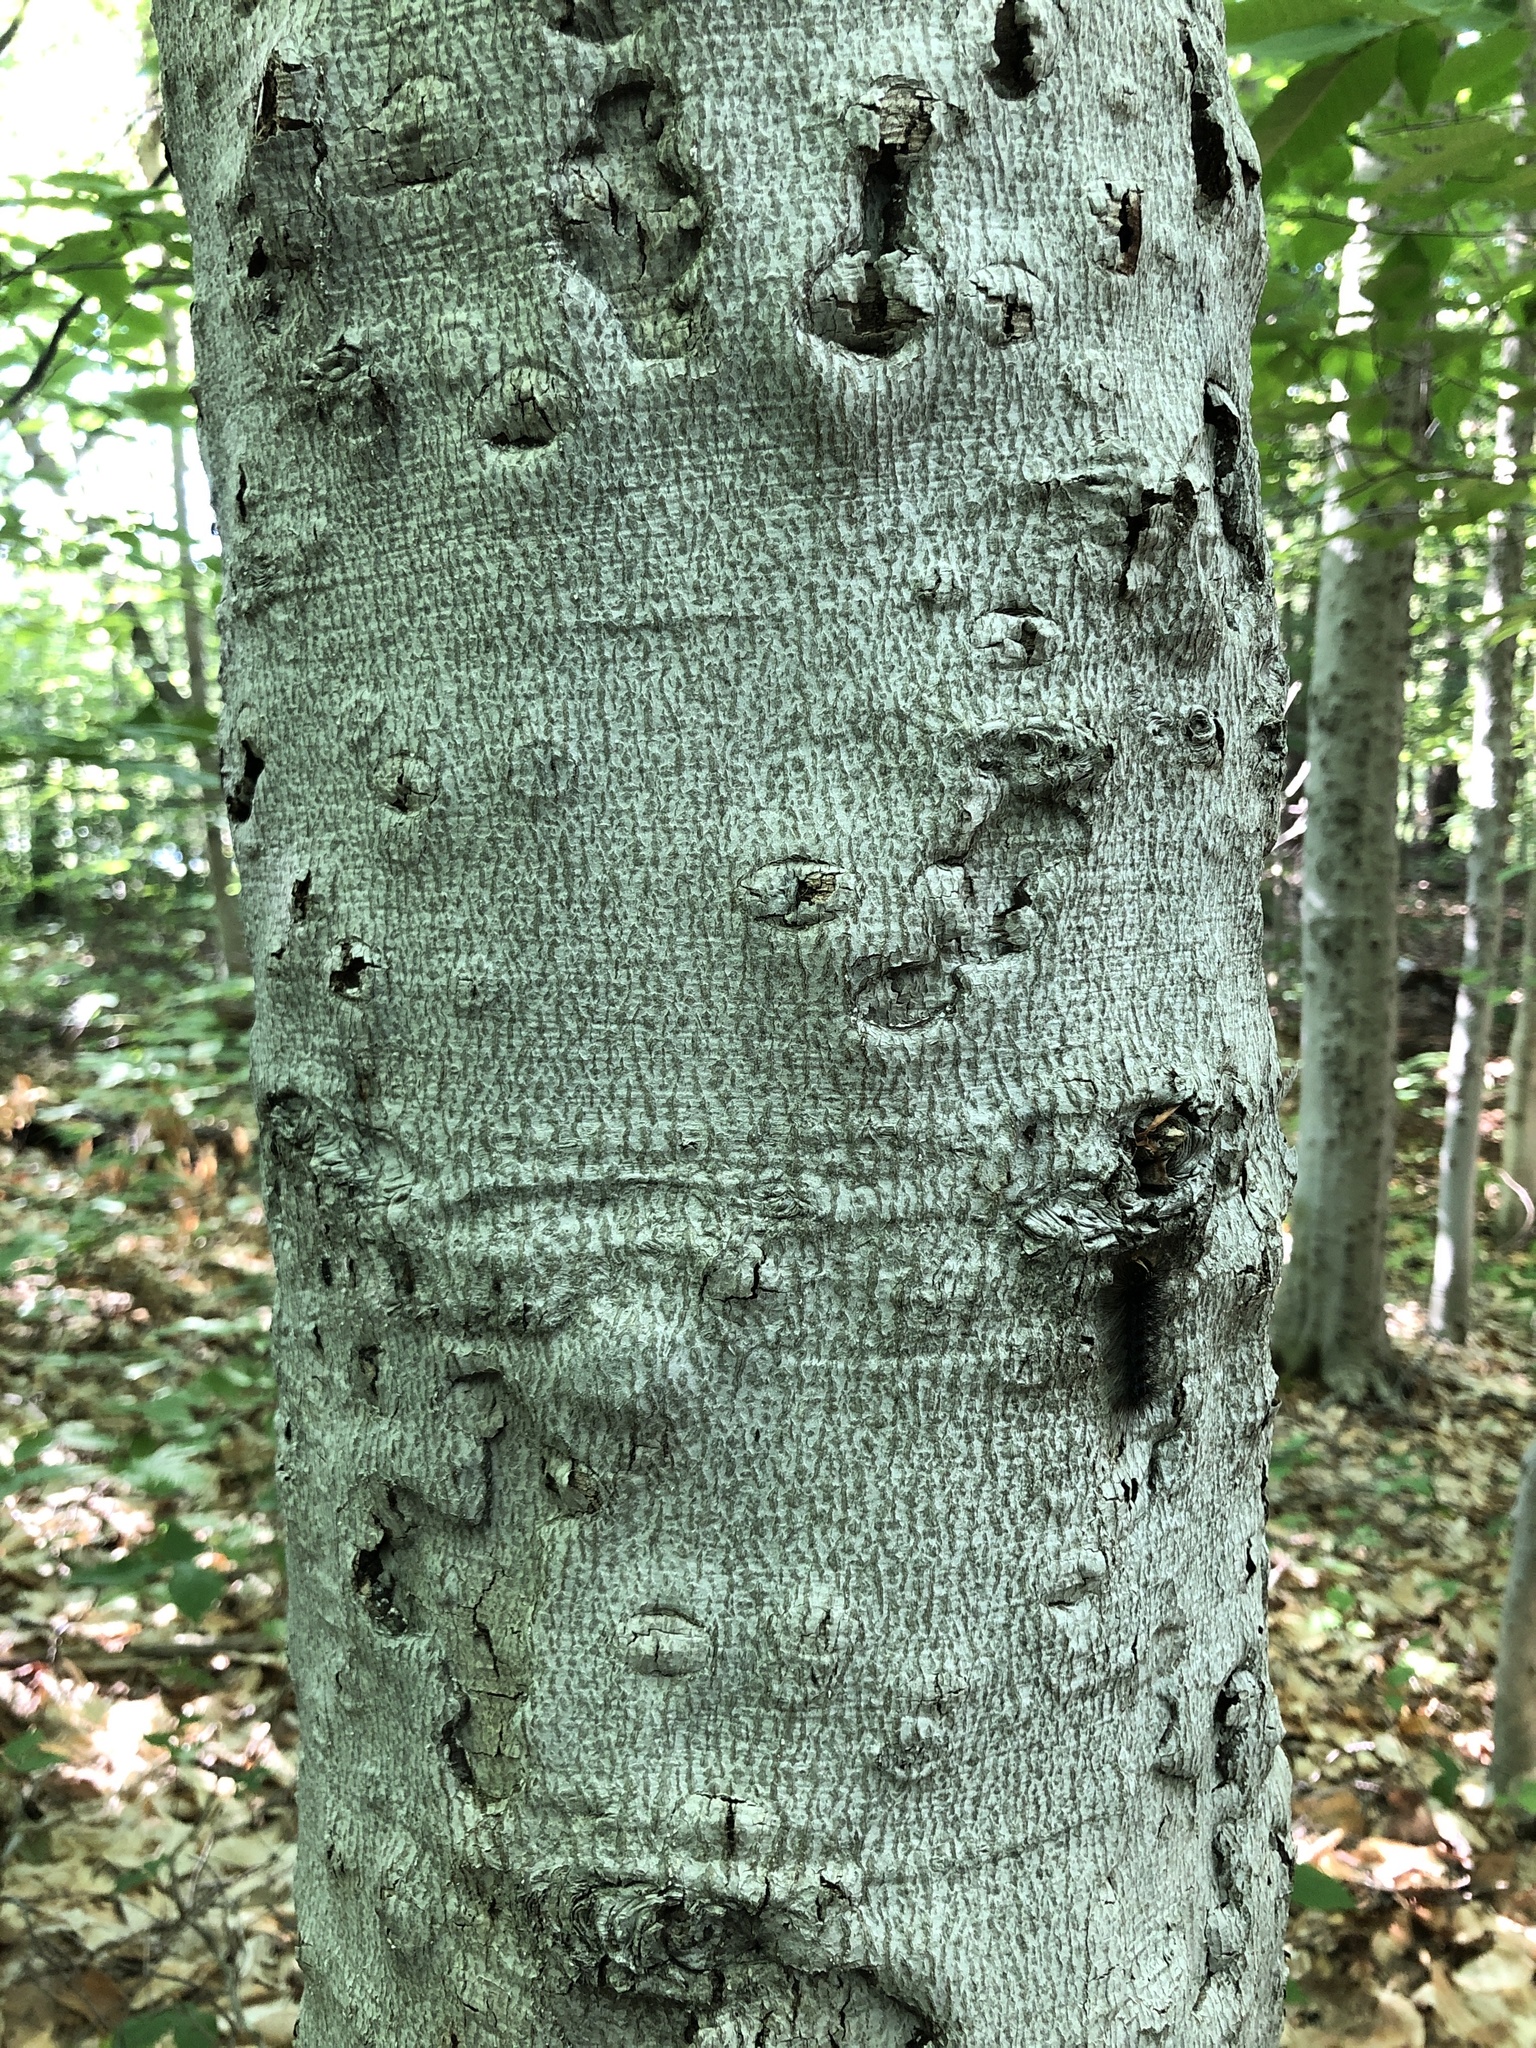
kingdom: Plantae
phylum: Tracheophyta
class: Magnoliopsida
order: Fagales
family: Fagaceae
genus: Fagus
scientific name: Fagus grandifolia
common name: American beech
